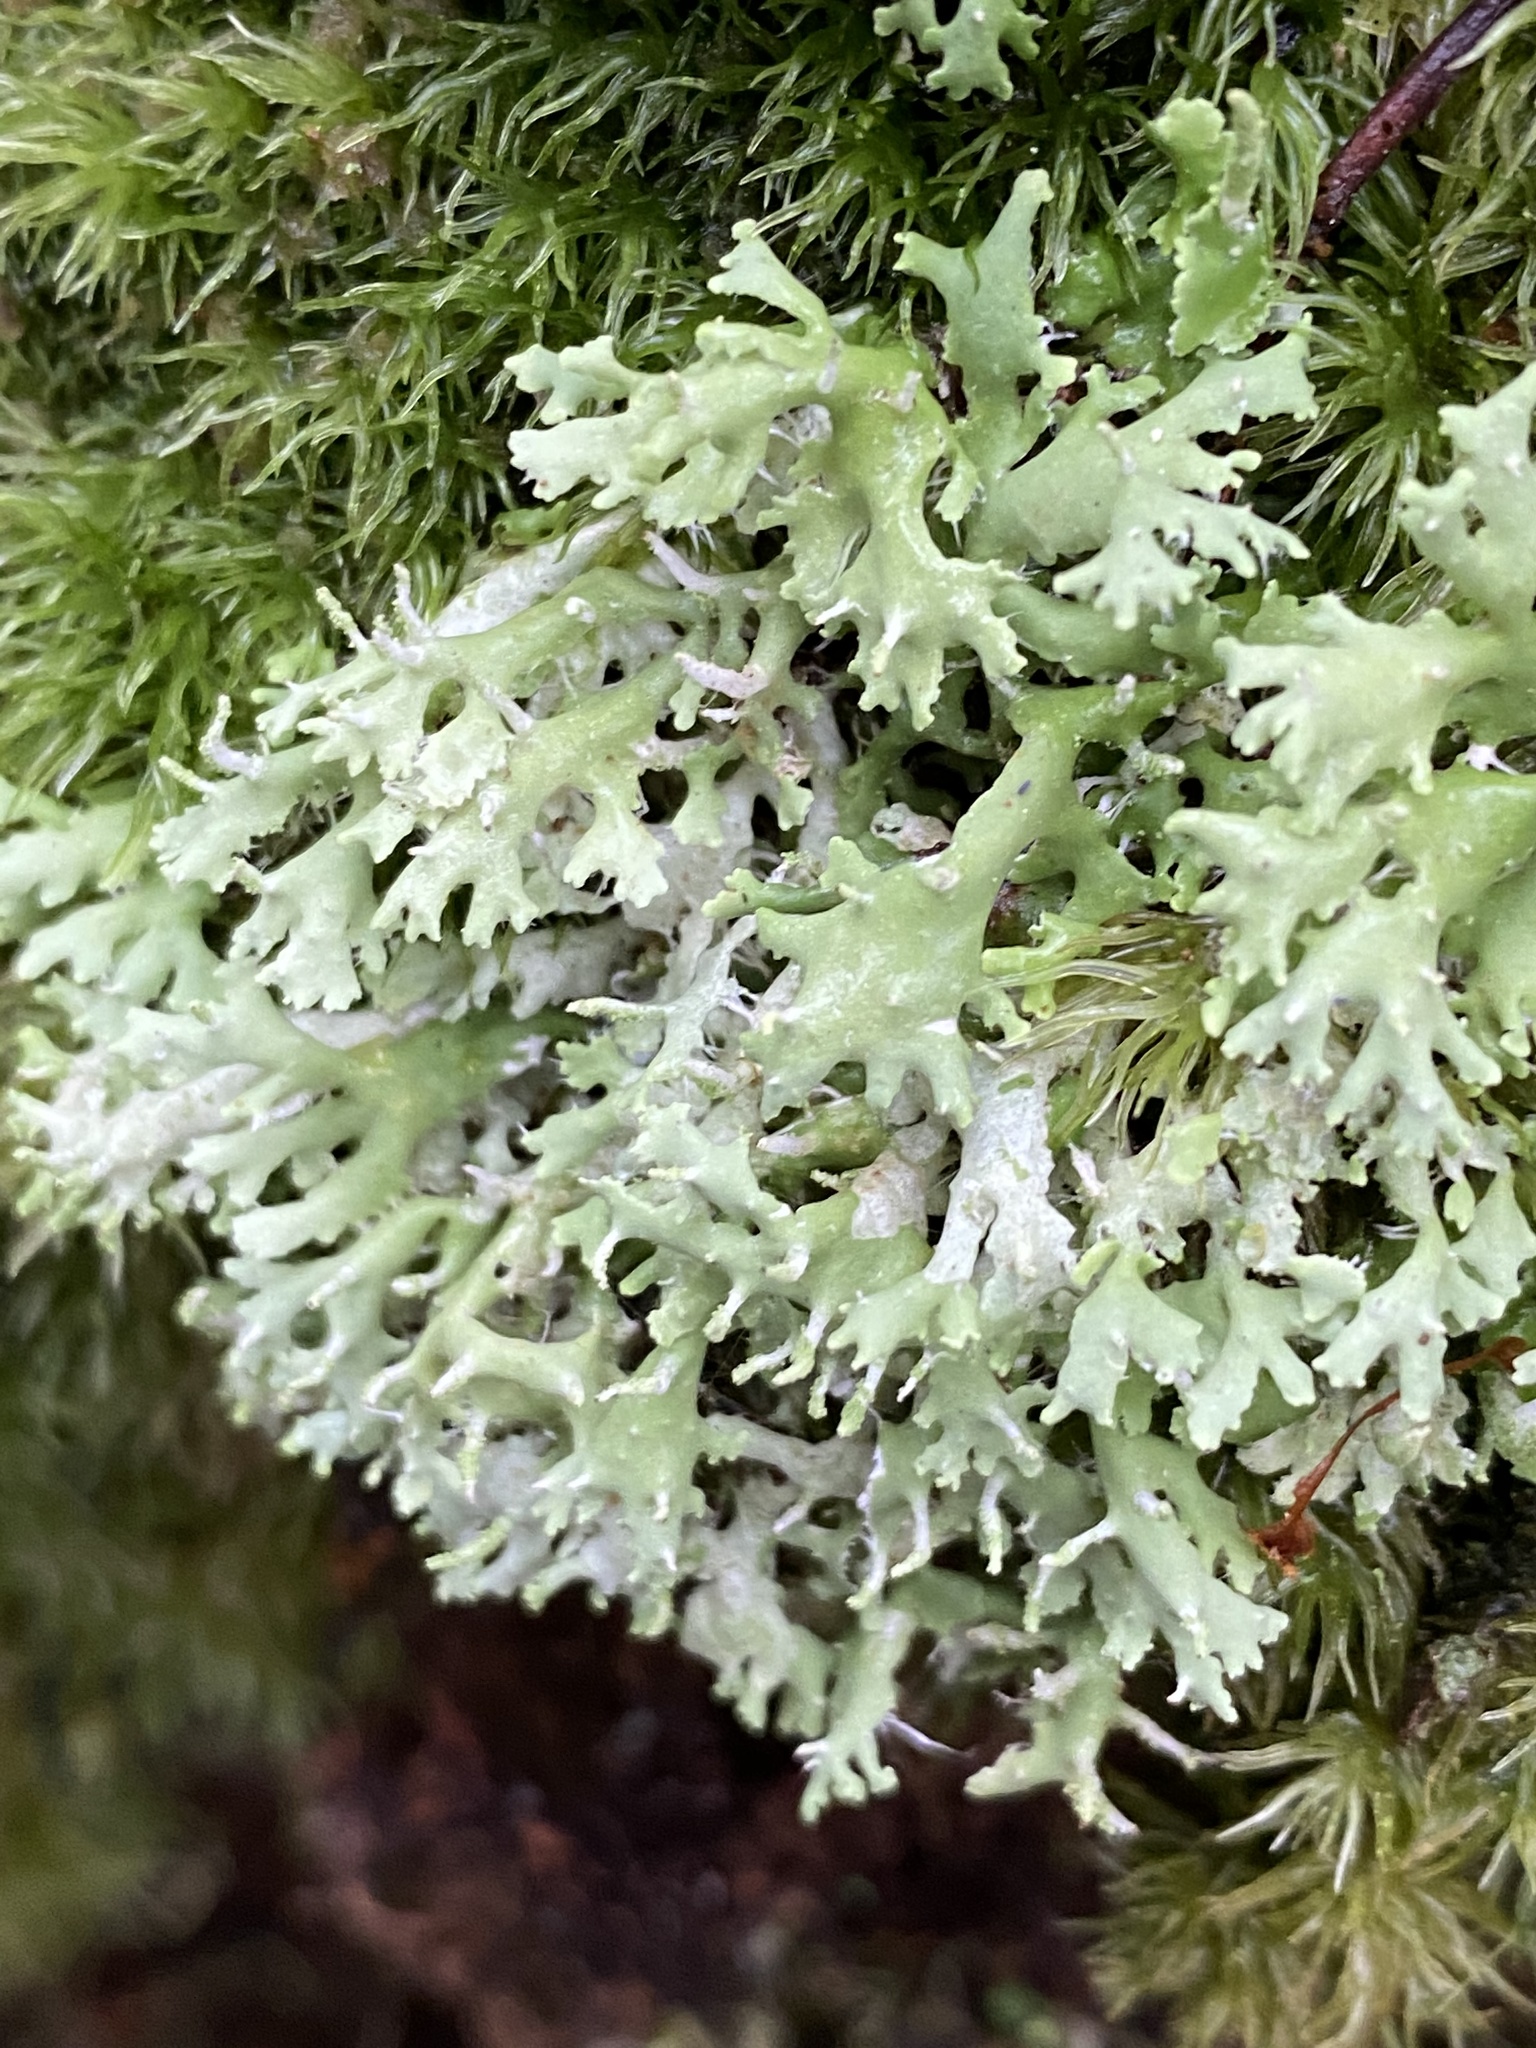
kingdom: Fungi
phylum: Ascomycota
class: Lecanoromycetes
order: Lecanorales
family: Cladoniaceae
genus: Cladonia
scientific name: Cladonia ceratophylla
